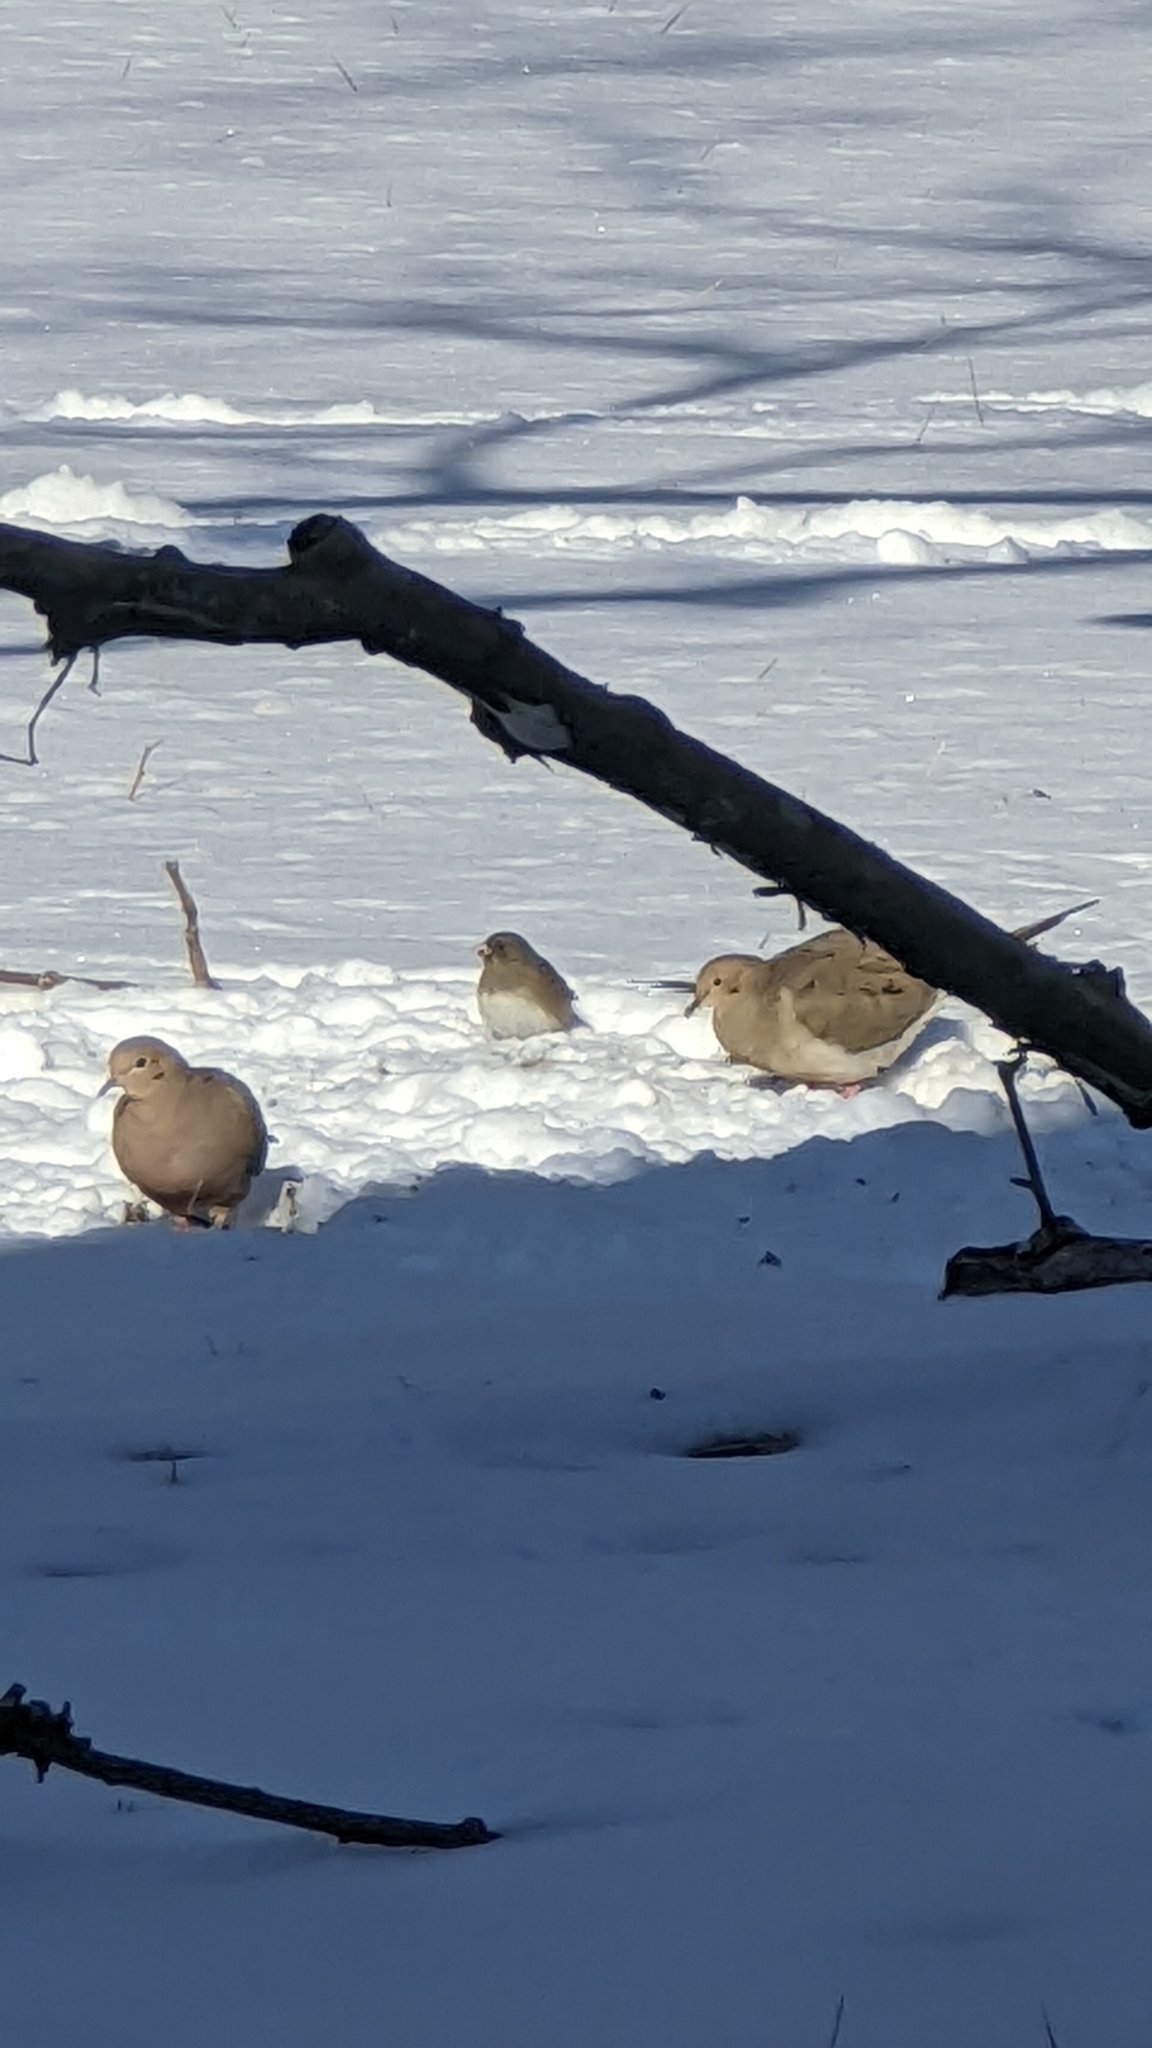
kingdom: Animalia
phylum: Chordata
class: Aves
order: Passeriformes
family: Passerellidae
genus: Junco
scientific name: Junco hyemalis
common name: Dark-eyed junco
